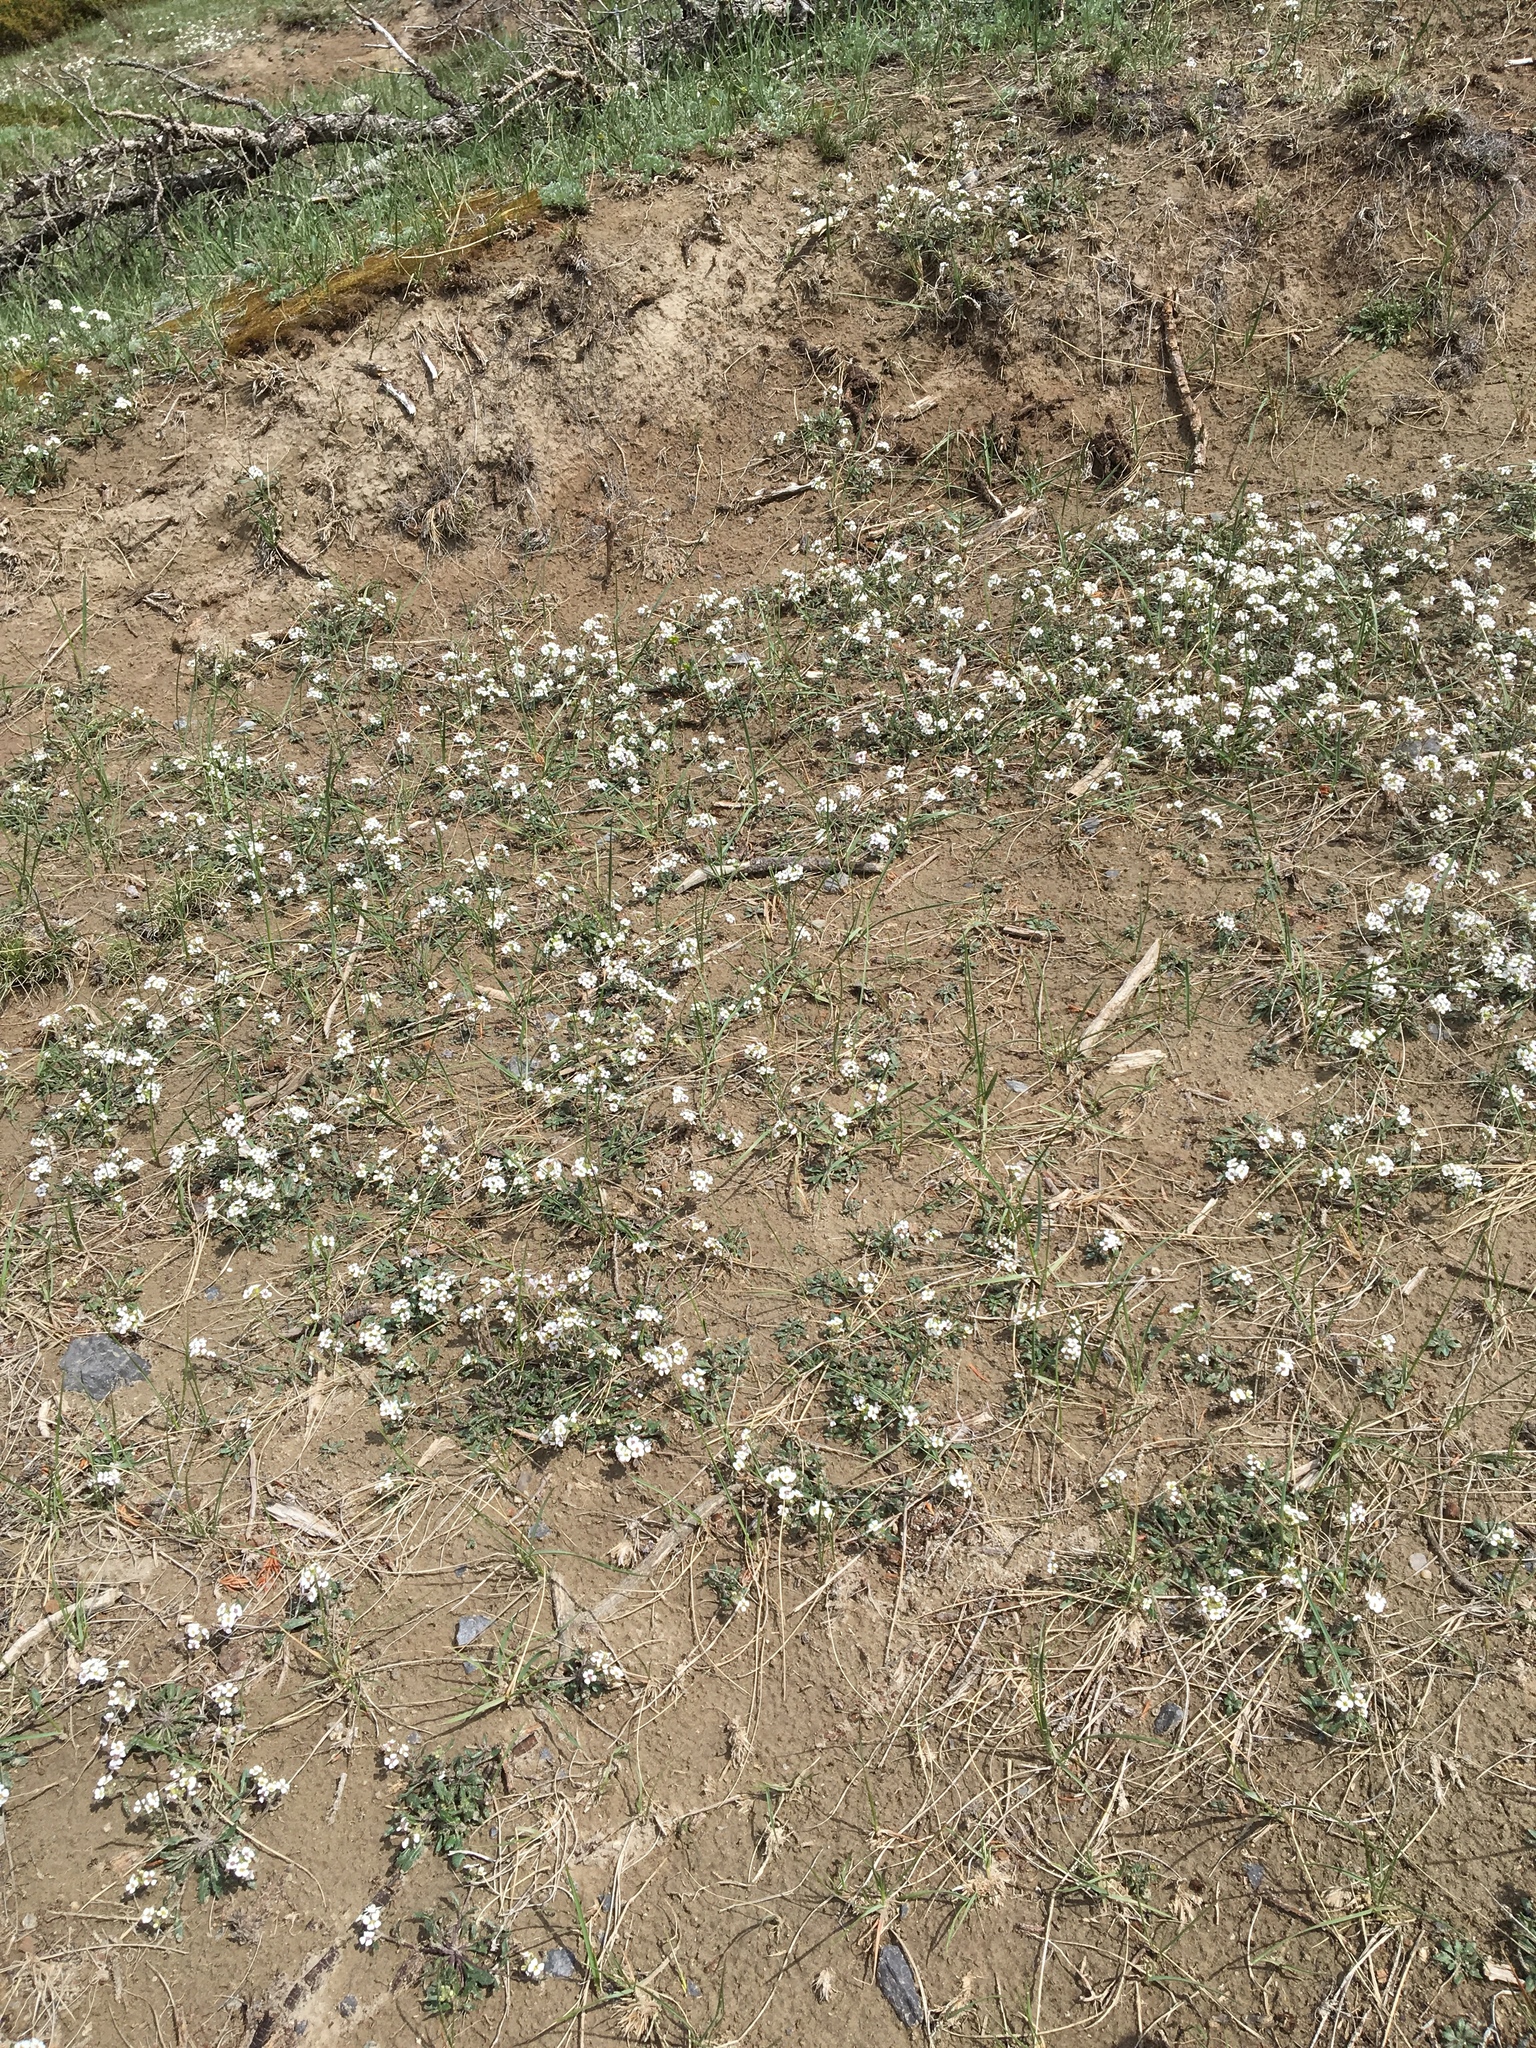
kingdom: Plantae
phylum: Tracheophyta
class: Magnoliopsida
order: Brassicales
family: Brassicaceae
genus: Braya
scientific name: Braya humilis
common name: Alpine northern rockcress
